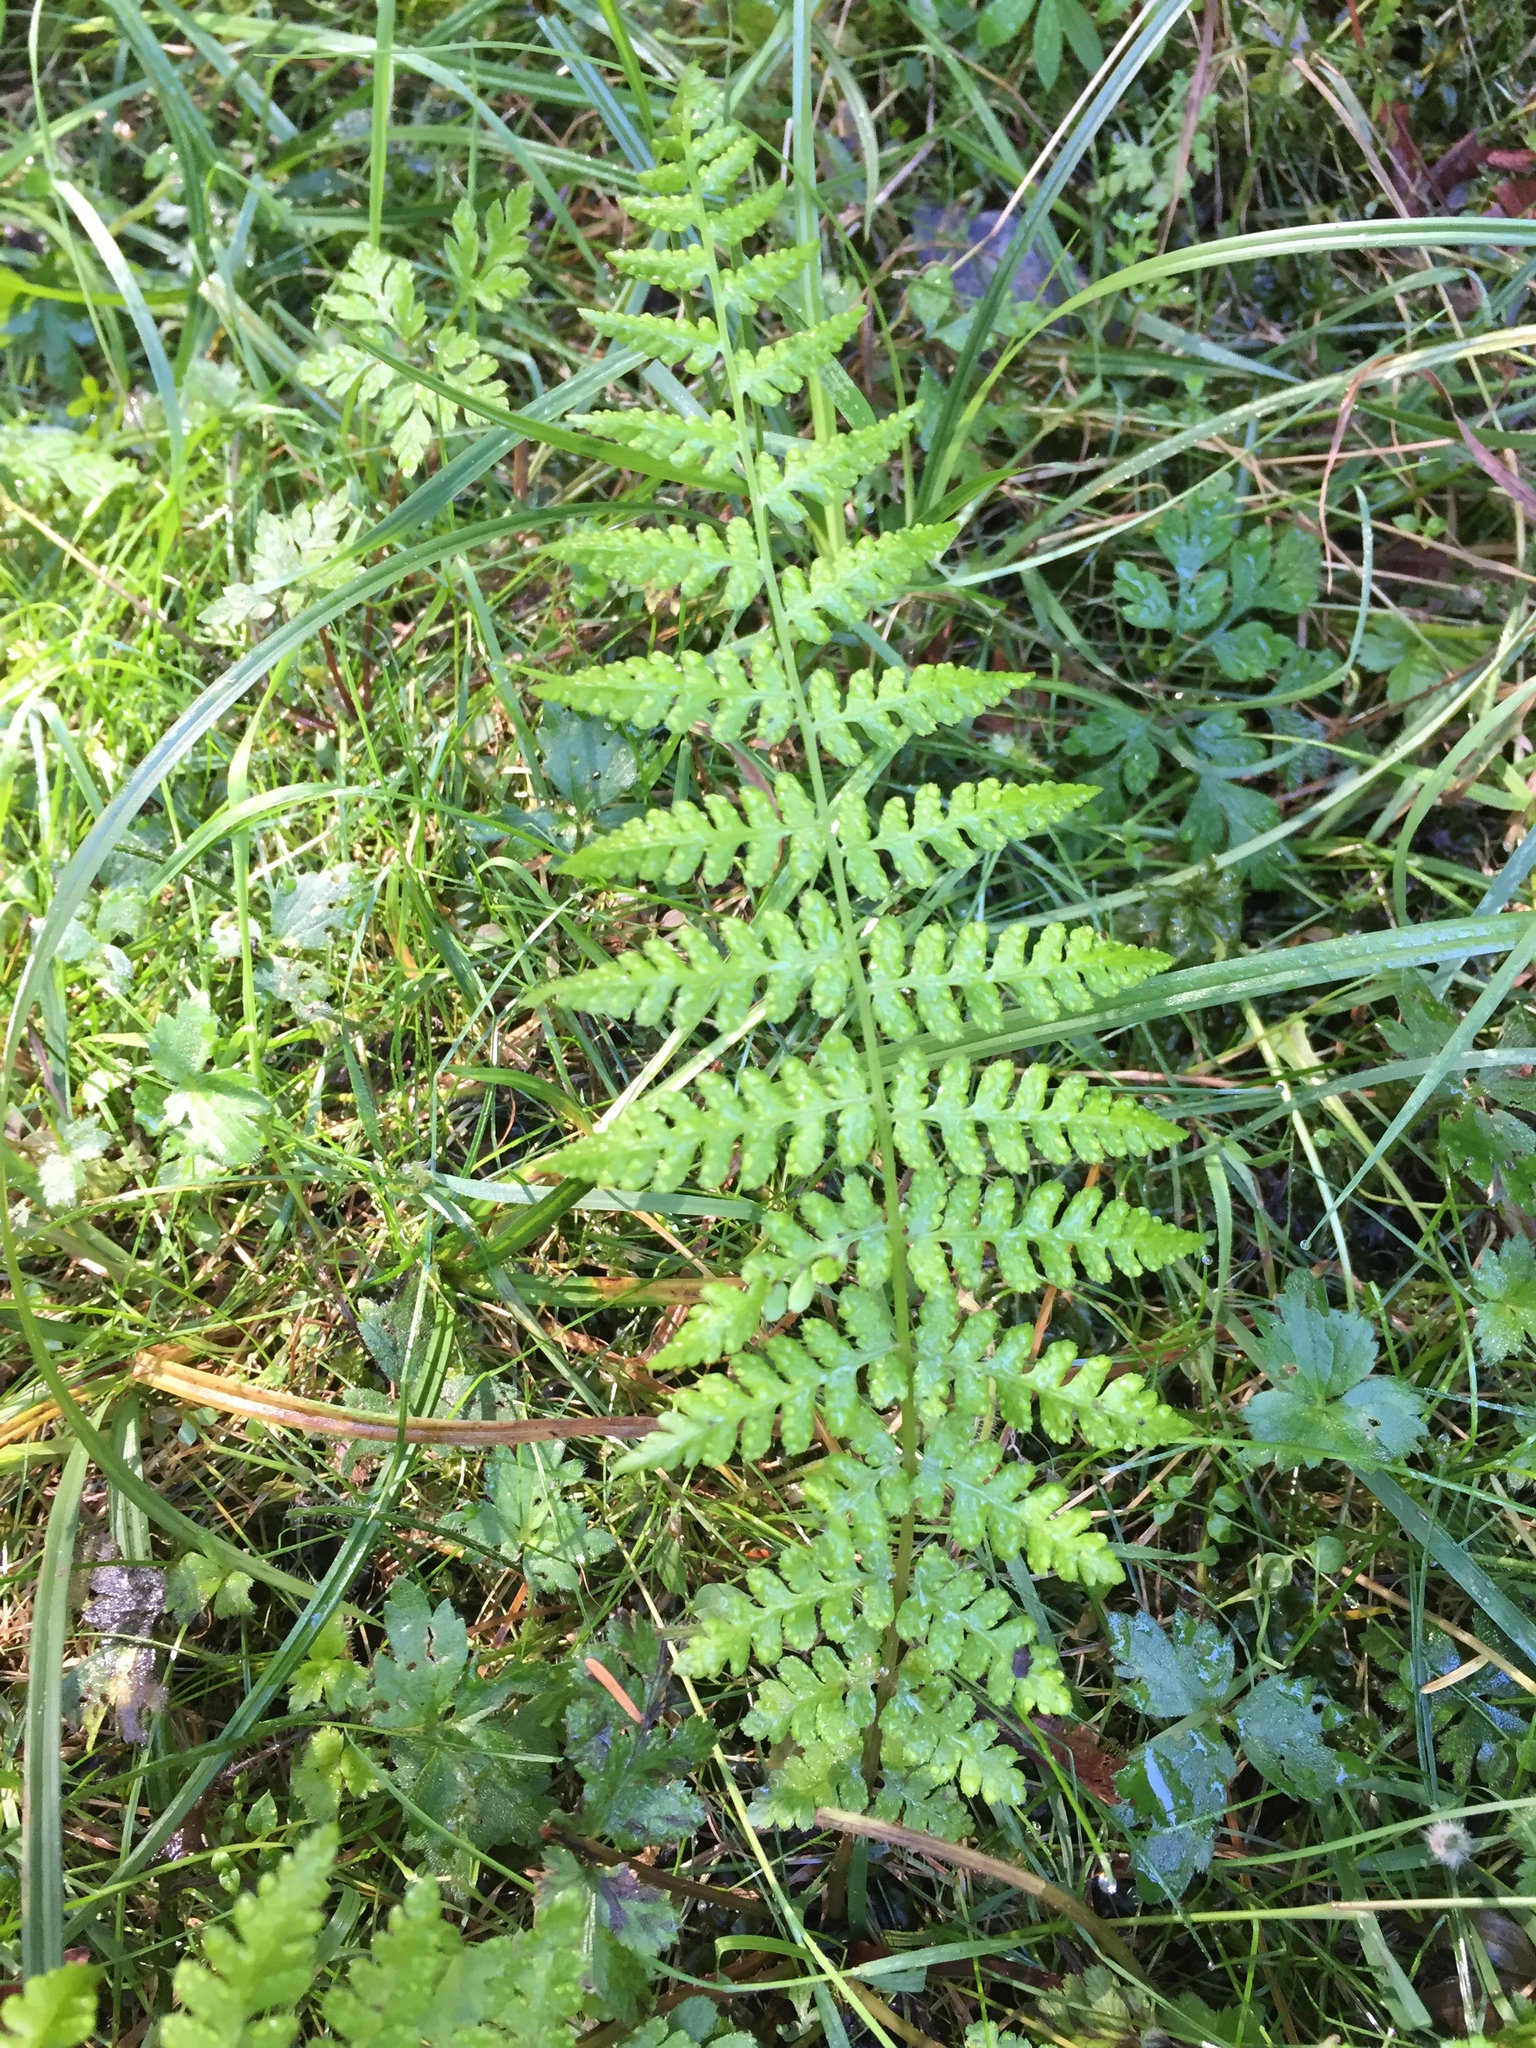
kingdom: Plantae
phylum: Tracheophyta
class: Polypodiopsida
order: Polypodiales
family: Athyriaceae
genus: Athyrium
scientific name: Athyrium filix-femina
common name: Lady fern
